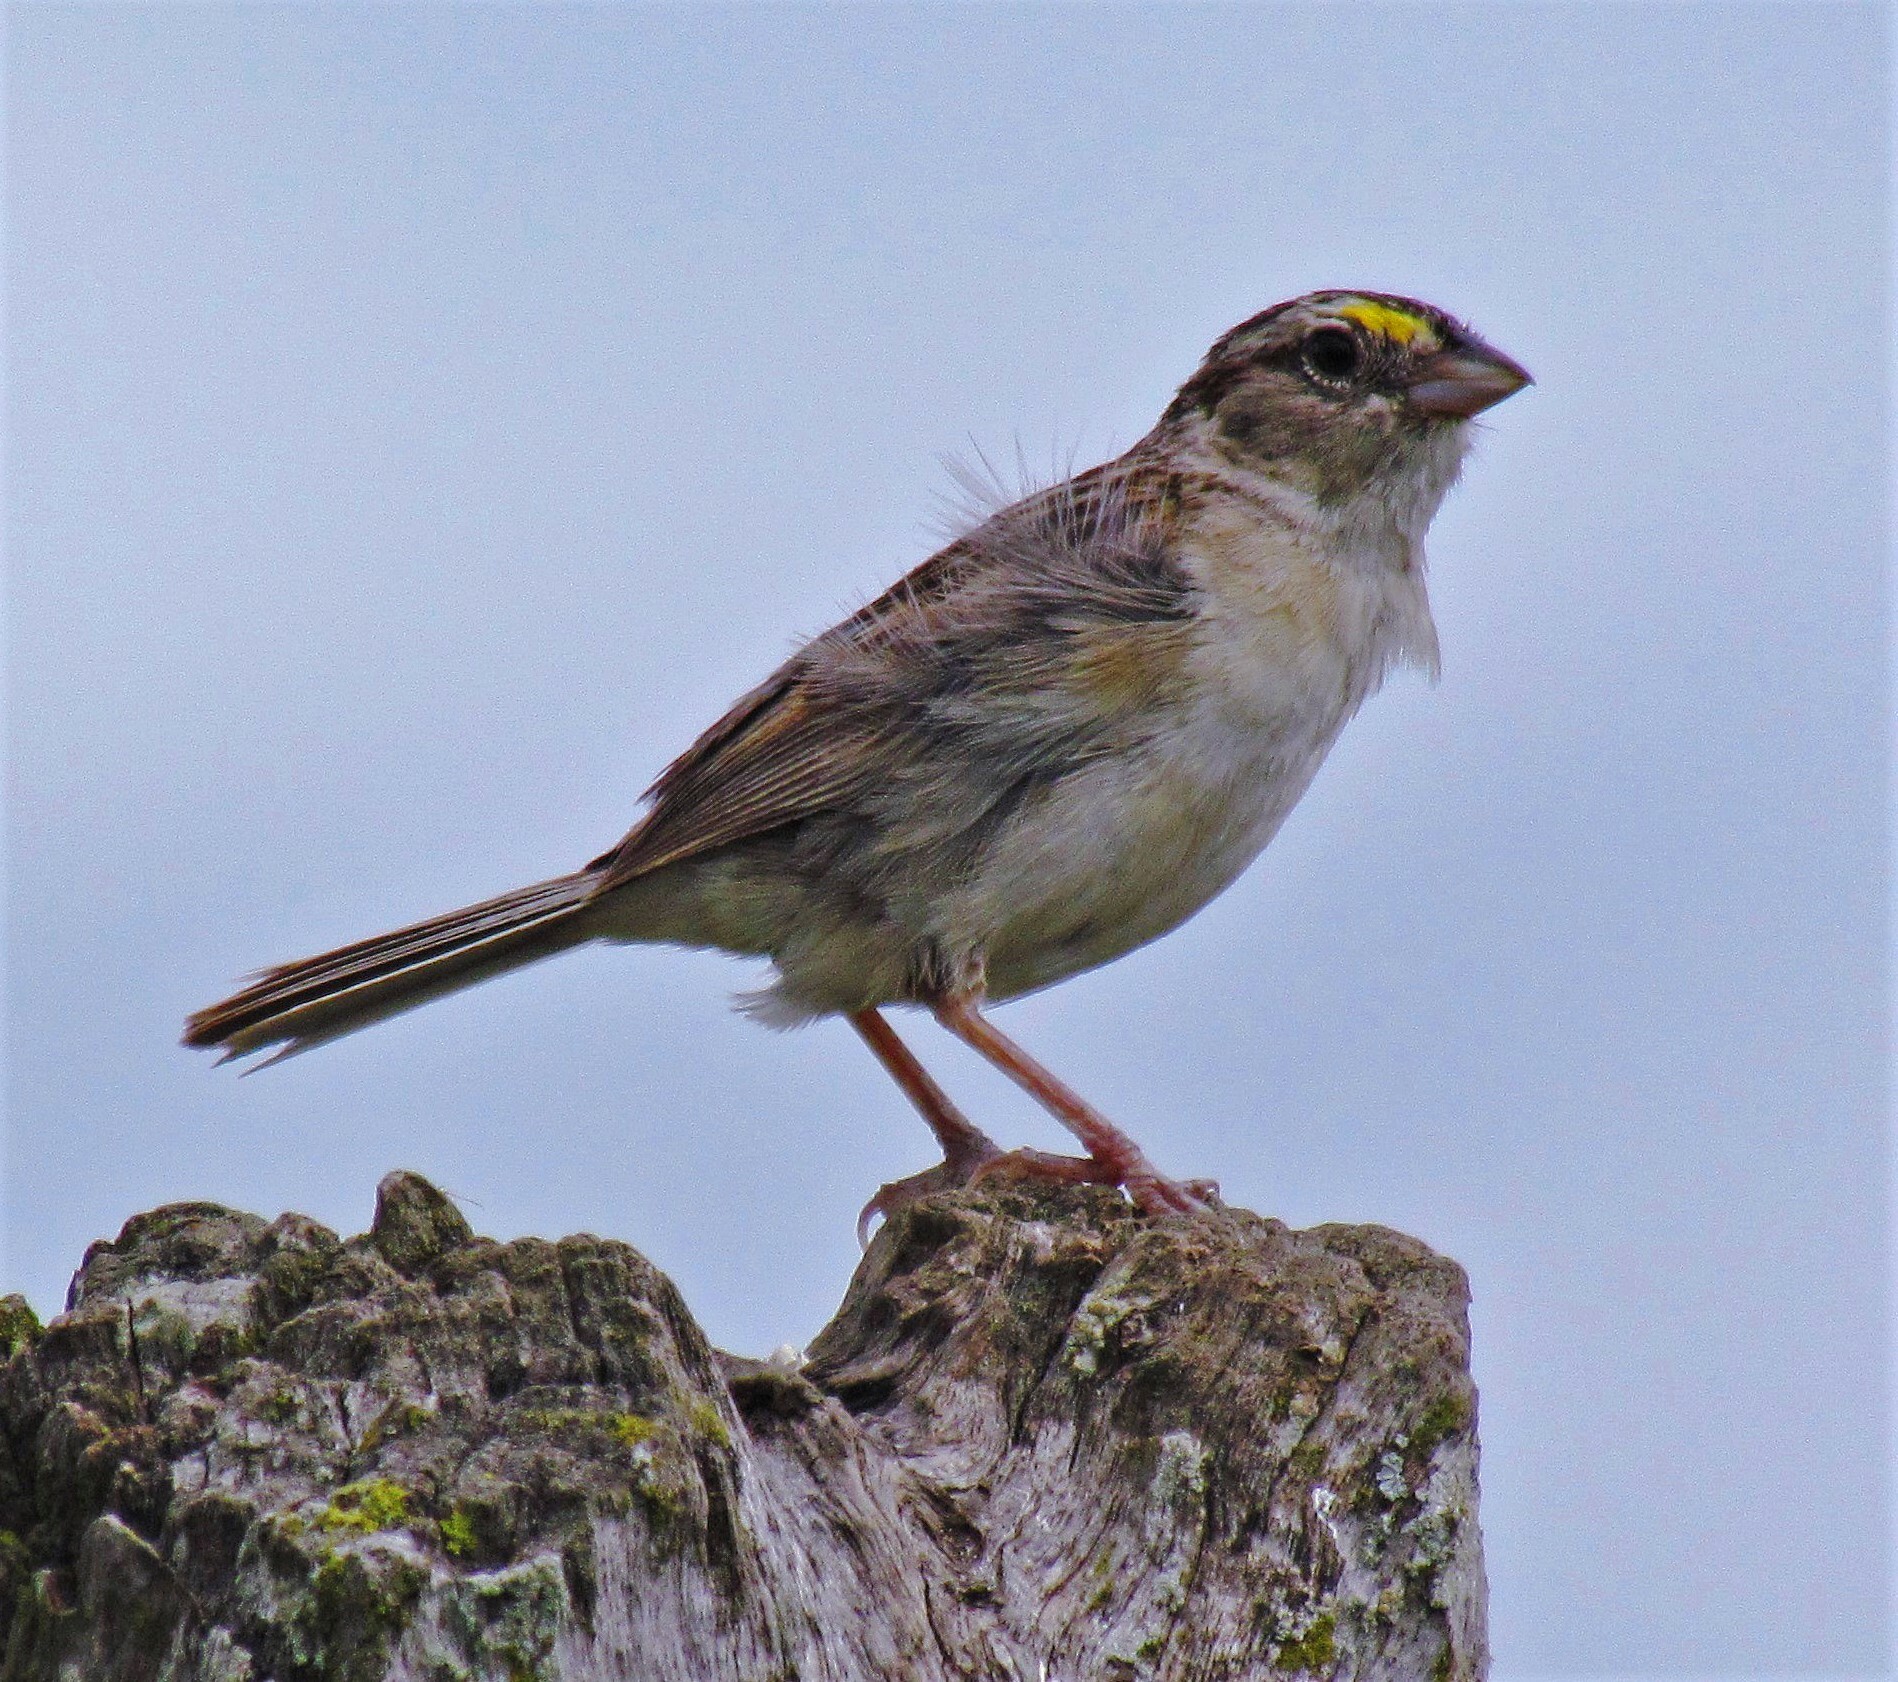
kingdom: Animalia
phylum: Chordata
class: Aves
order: Passeriformes
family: Passerellidae
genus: Ammodramus
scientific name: Ammodramus humeralis
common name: Grassland sparrow
